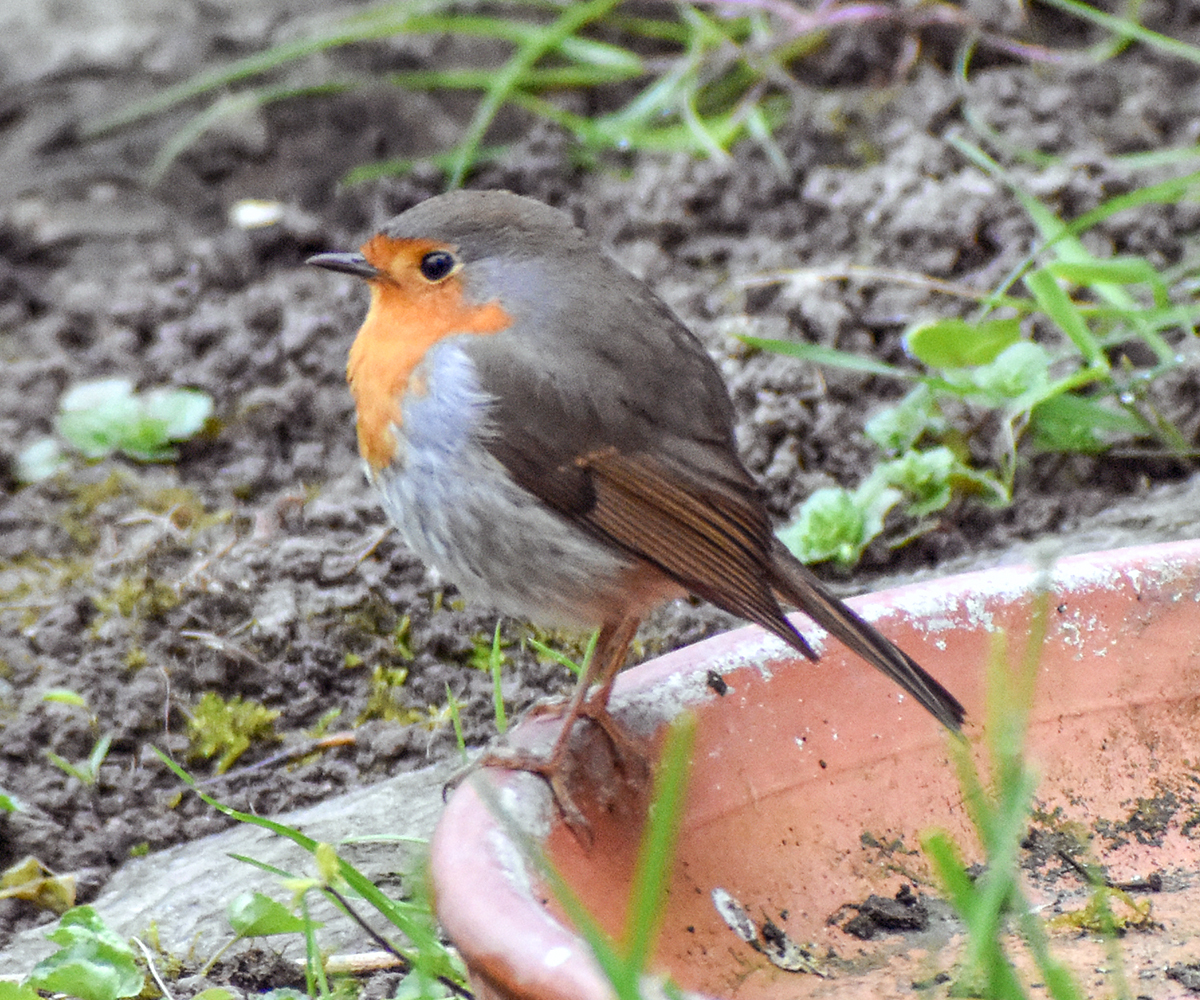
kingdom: Animalia
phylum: Chordata
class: Aves
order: Passeriformes
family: Muscicapidae
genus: Erithacus
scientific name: Erithacus rubecula
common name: European robin
